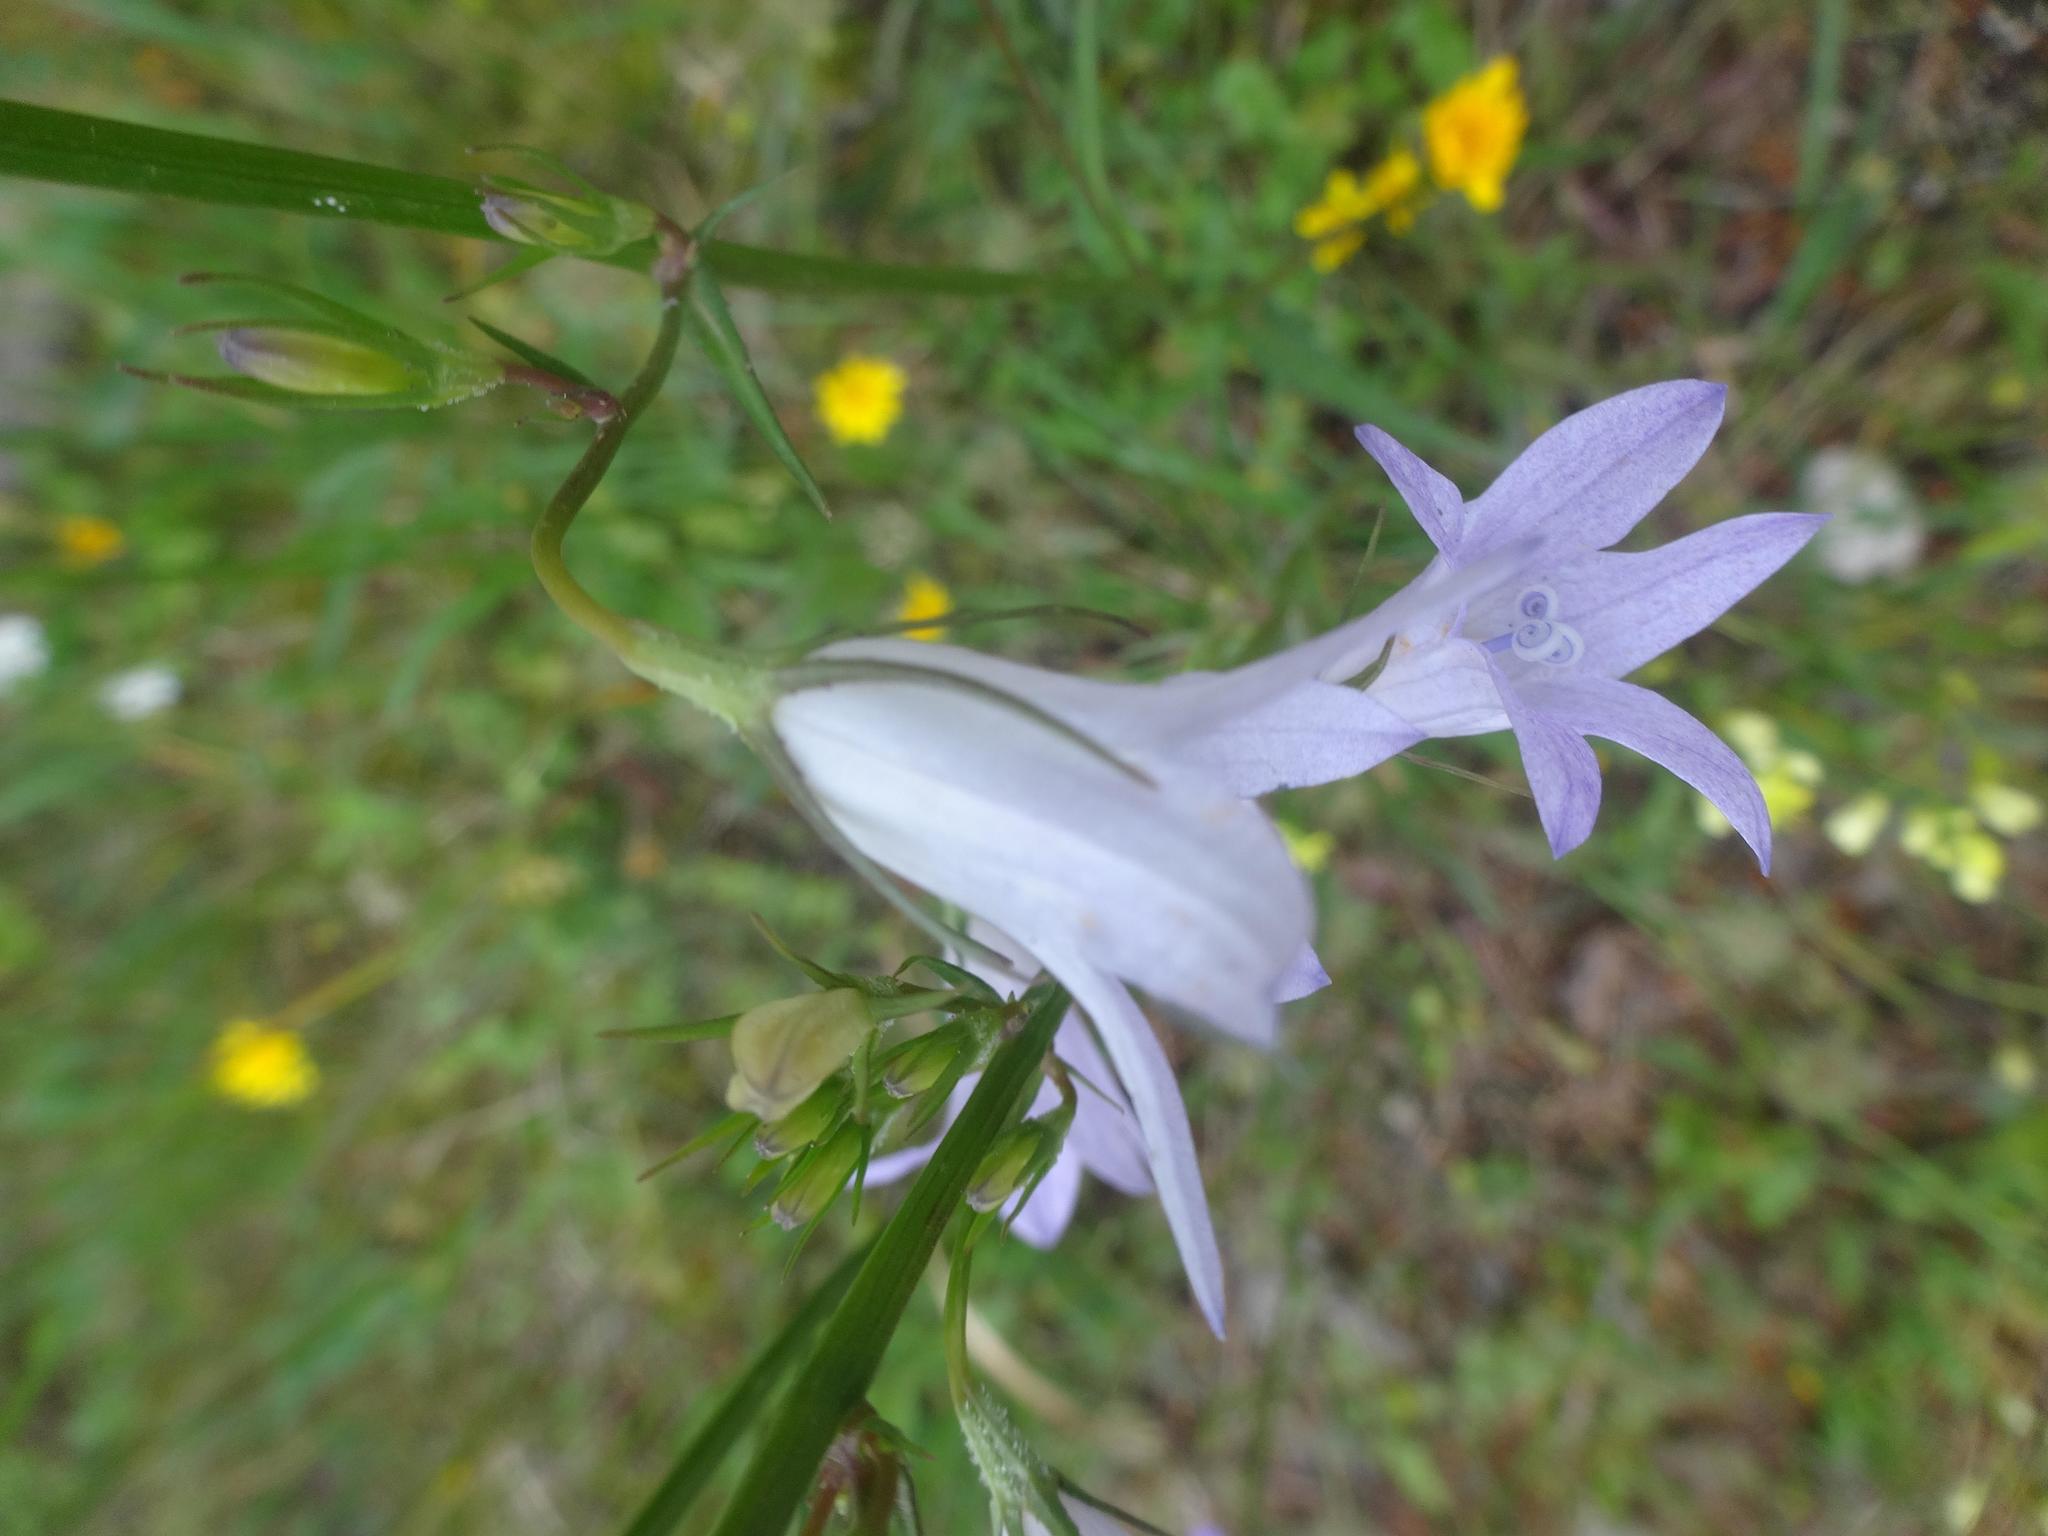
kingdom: Plantae
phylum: Tracheophyta
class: Magnoliopsida
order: Asterales
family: Campanulaceae
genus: Campanula
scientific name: Campanula rapunculus
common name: Rampion bellflower
